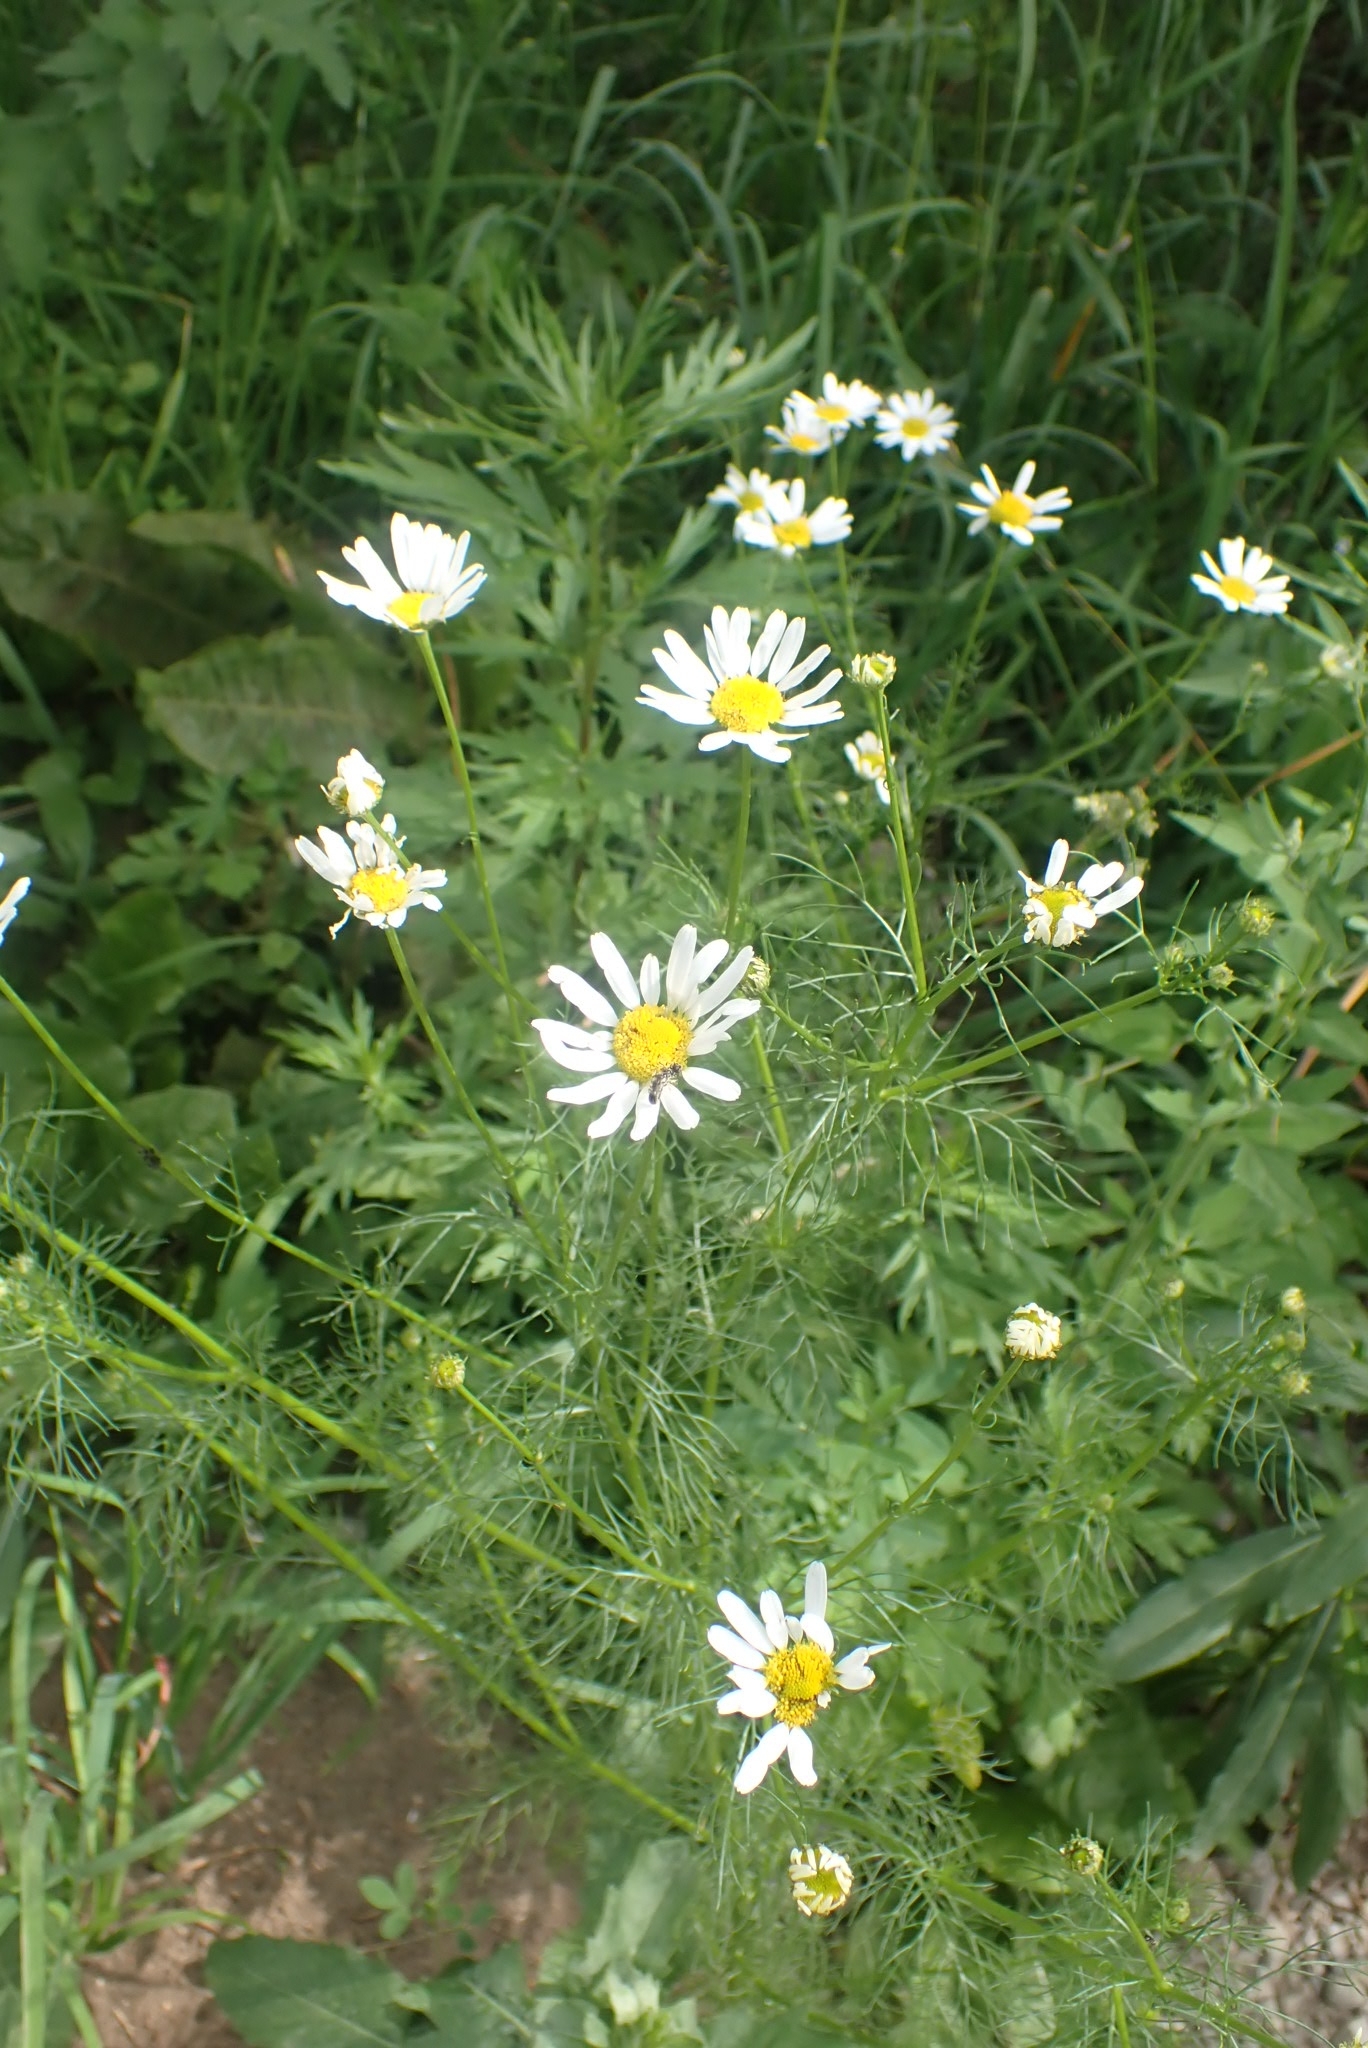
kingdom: Plantae
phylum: Tracheophyta
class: Magnoliopsida
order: Asterales
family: Asteraceae
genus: Tripleurospermum
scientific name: Tripleurospermum inodorum
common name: Scentless mayweed
